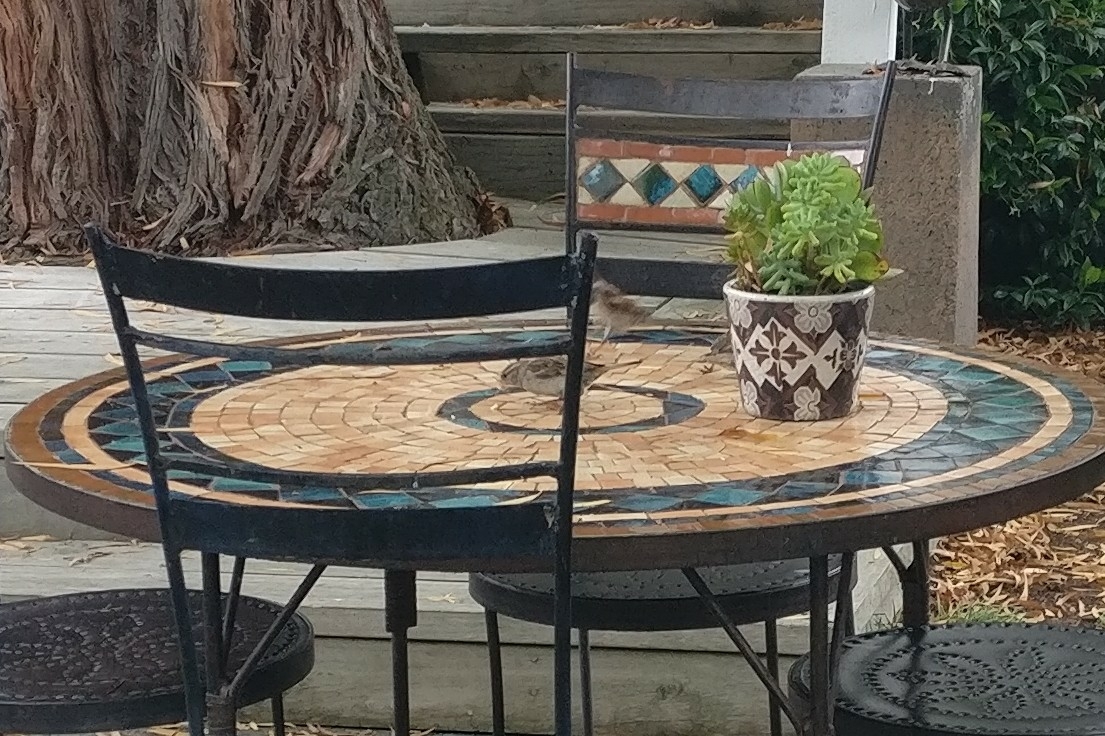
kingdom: Animalia
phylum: Chordata
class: Aves
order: Passeriformes
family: Passeridae
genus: Passer
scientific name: Passer domesticus
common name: House sparrow
